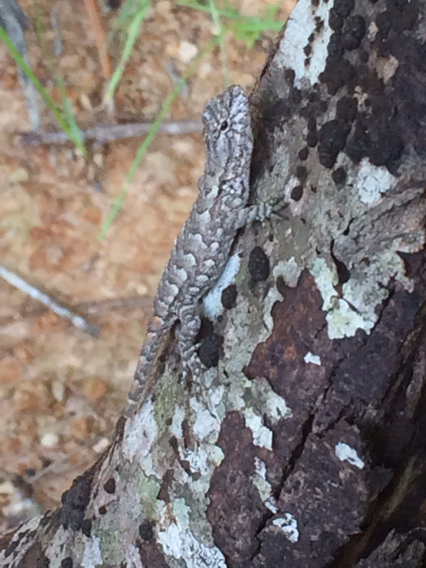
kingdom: Animalia
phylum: Chordata
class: Squamata
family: Phrynosomatidae
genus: Sceloporus
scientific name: Sceloporus consobrinus
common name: Southern prairie lizard
